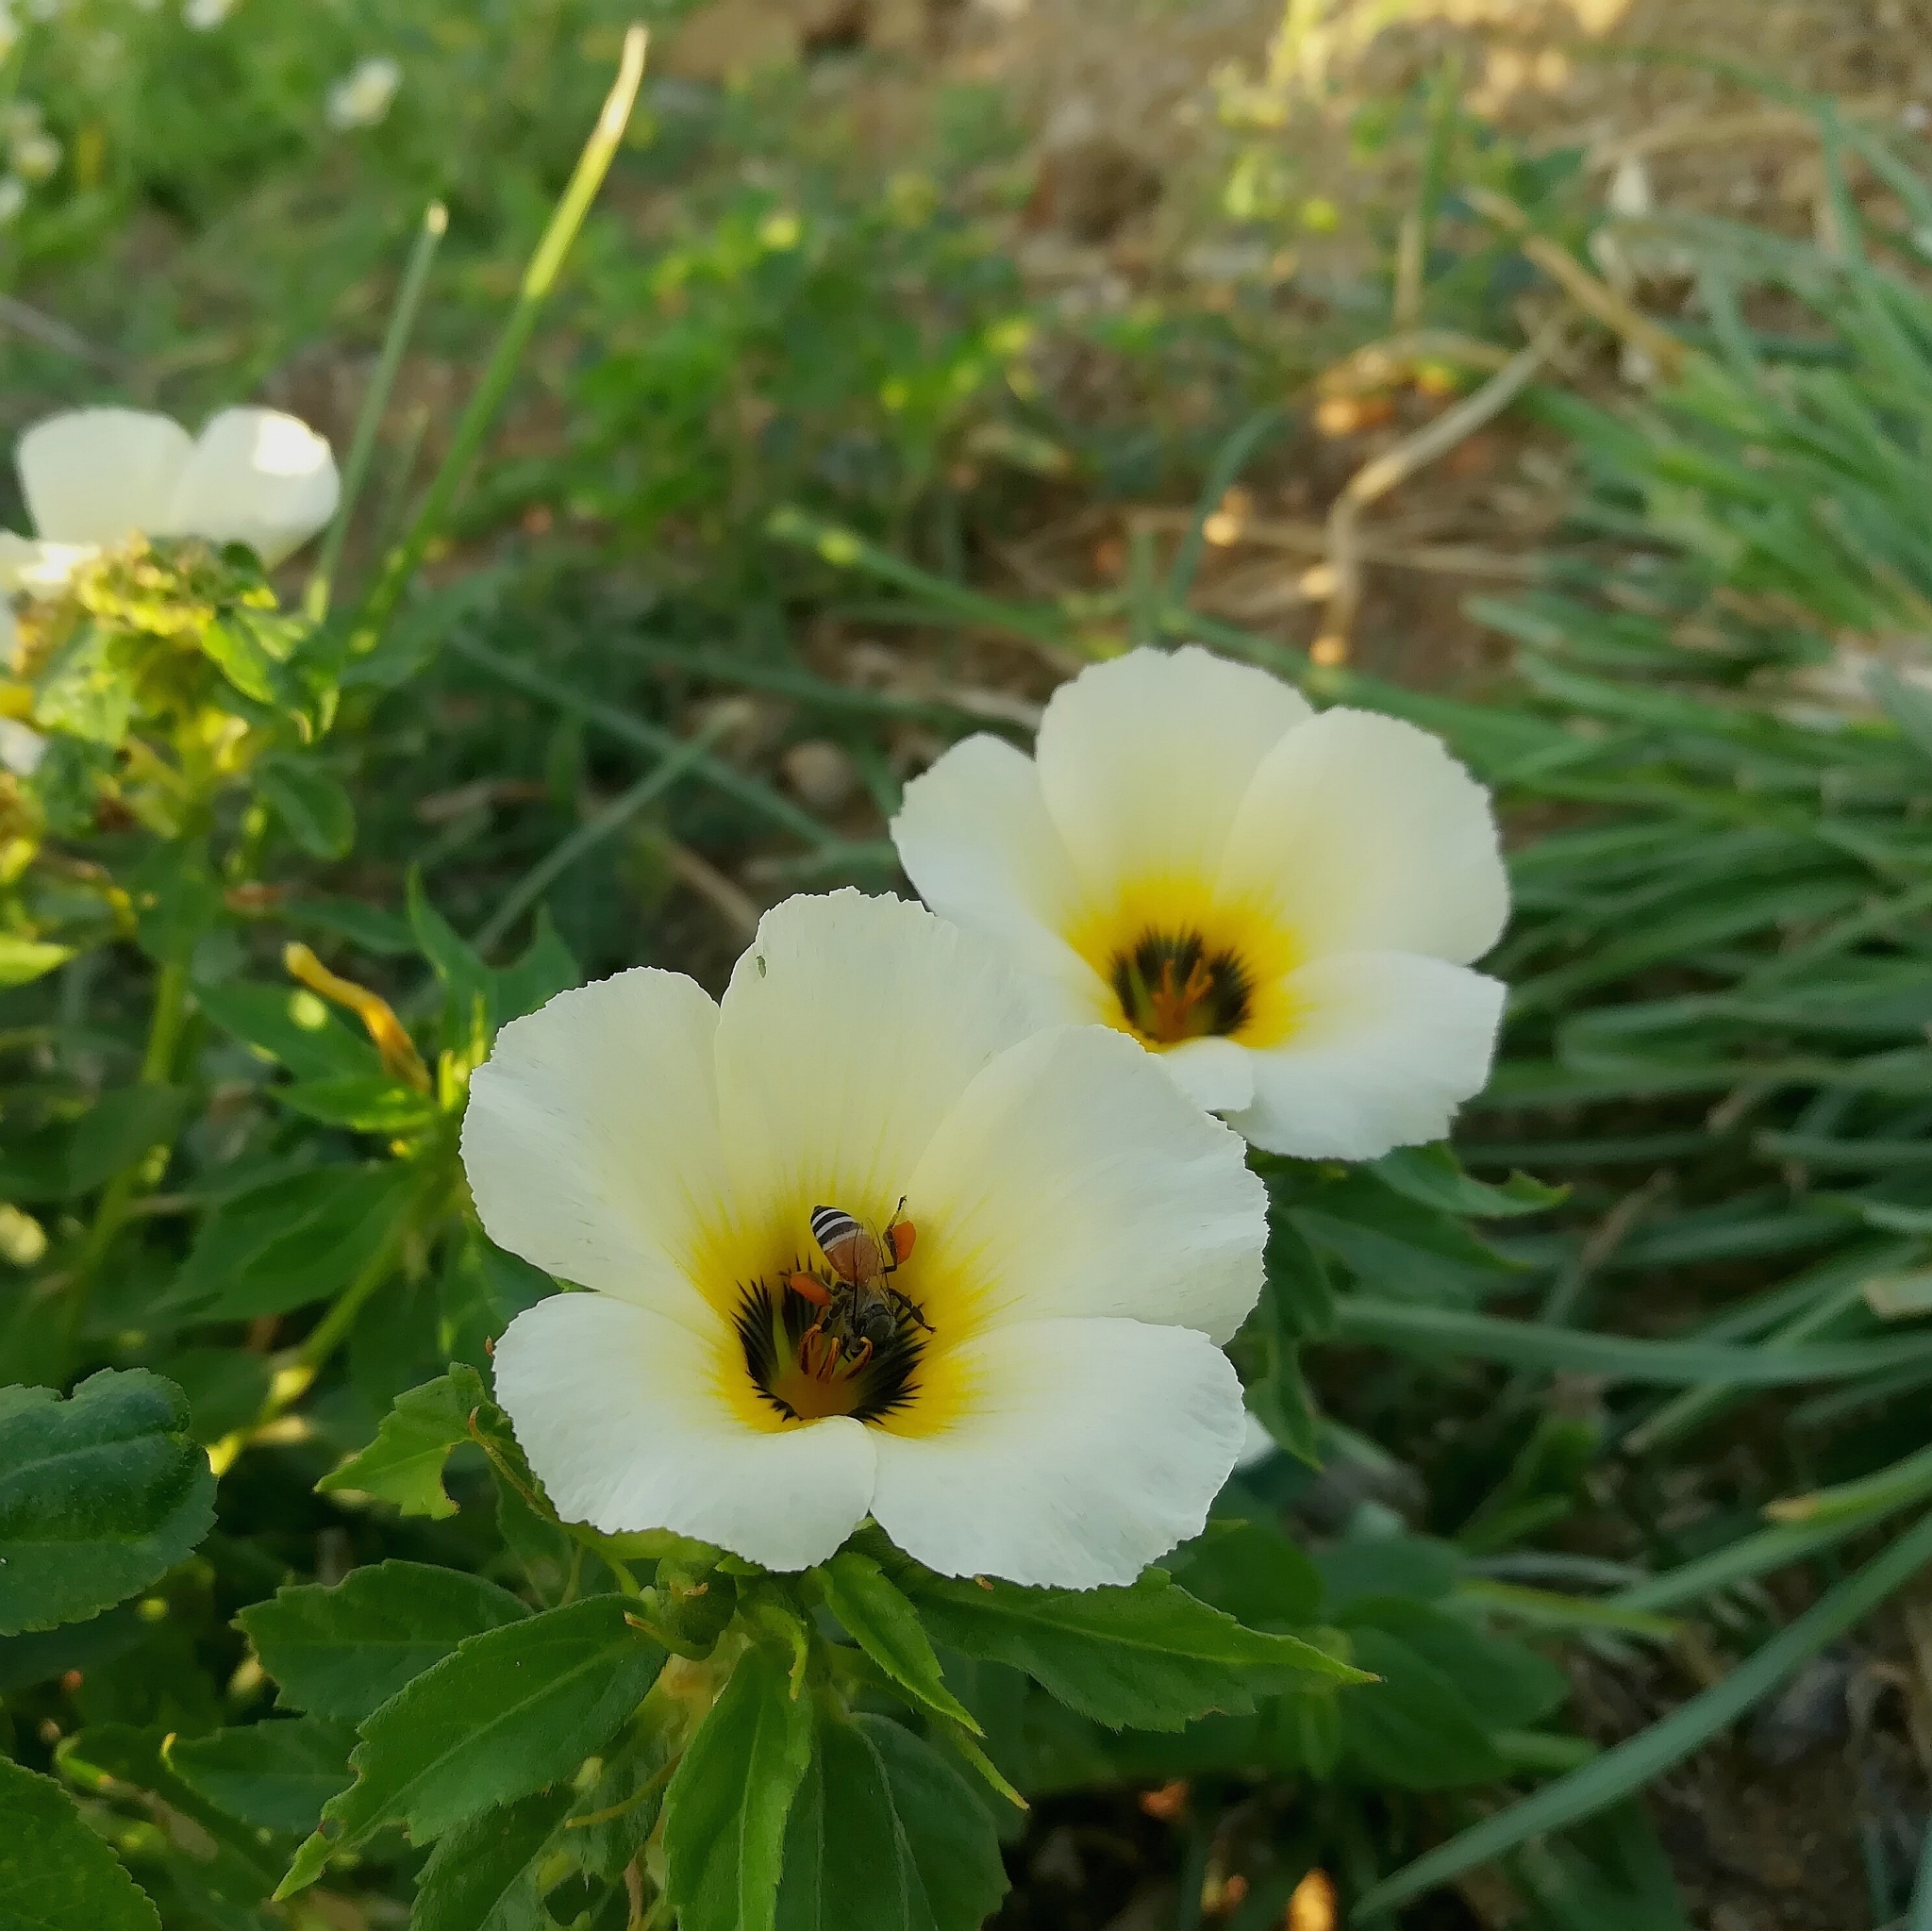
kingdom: Animalia
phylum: Arthropoda
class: Insecta
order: Hymenoptera
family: Apidae
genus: Apis
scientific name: Apis florea
